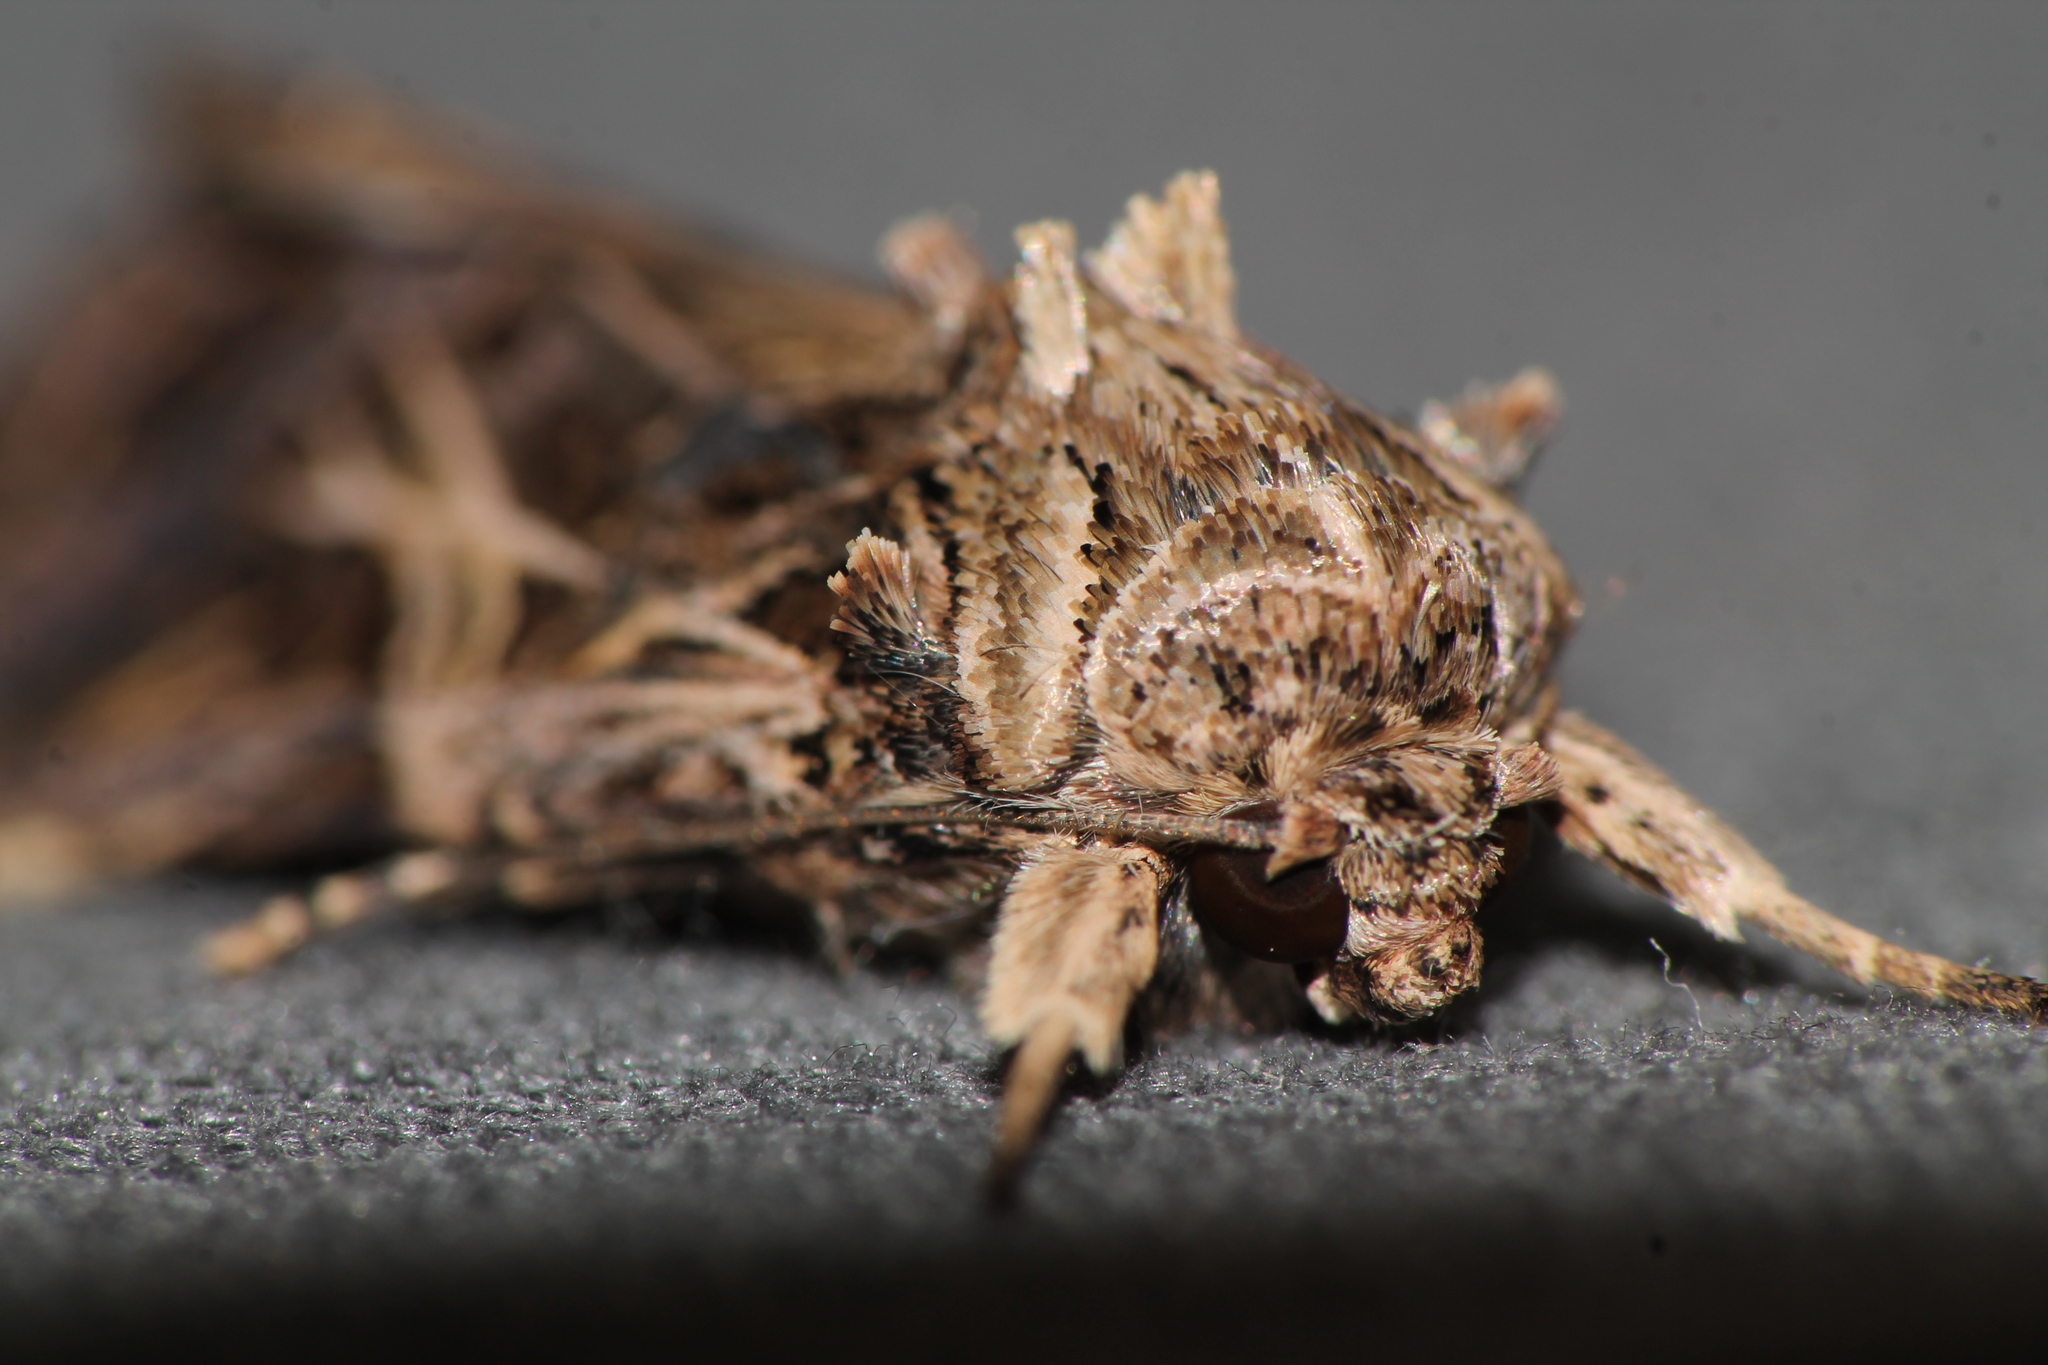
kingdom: Animalia
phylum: Arthropoda
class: Insecta
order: Lepidoptera
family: Noctuidae
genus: Spodoptera
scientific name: Spodoptera litura
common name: Asian cotton leafworm
